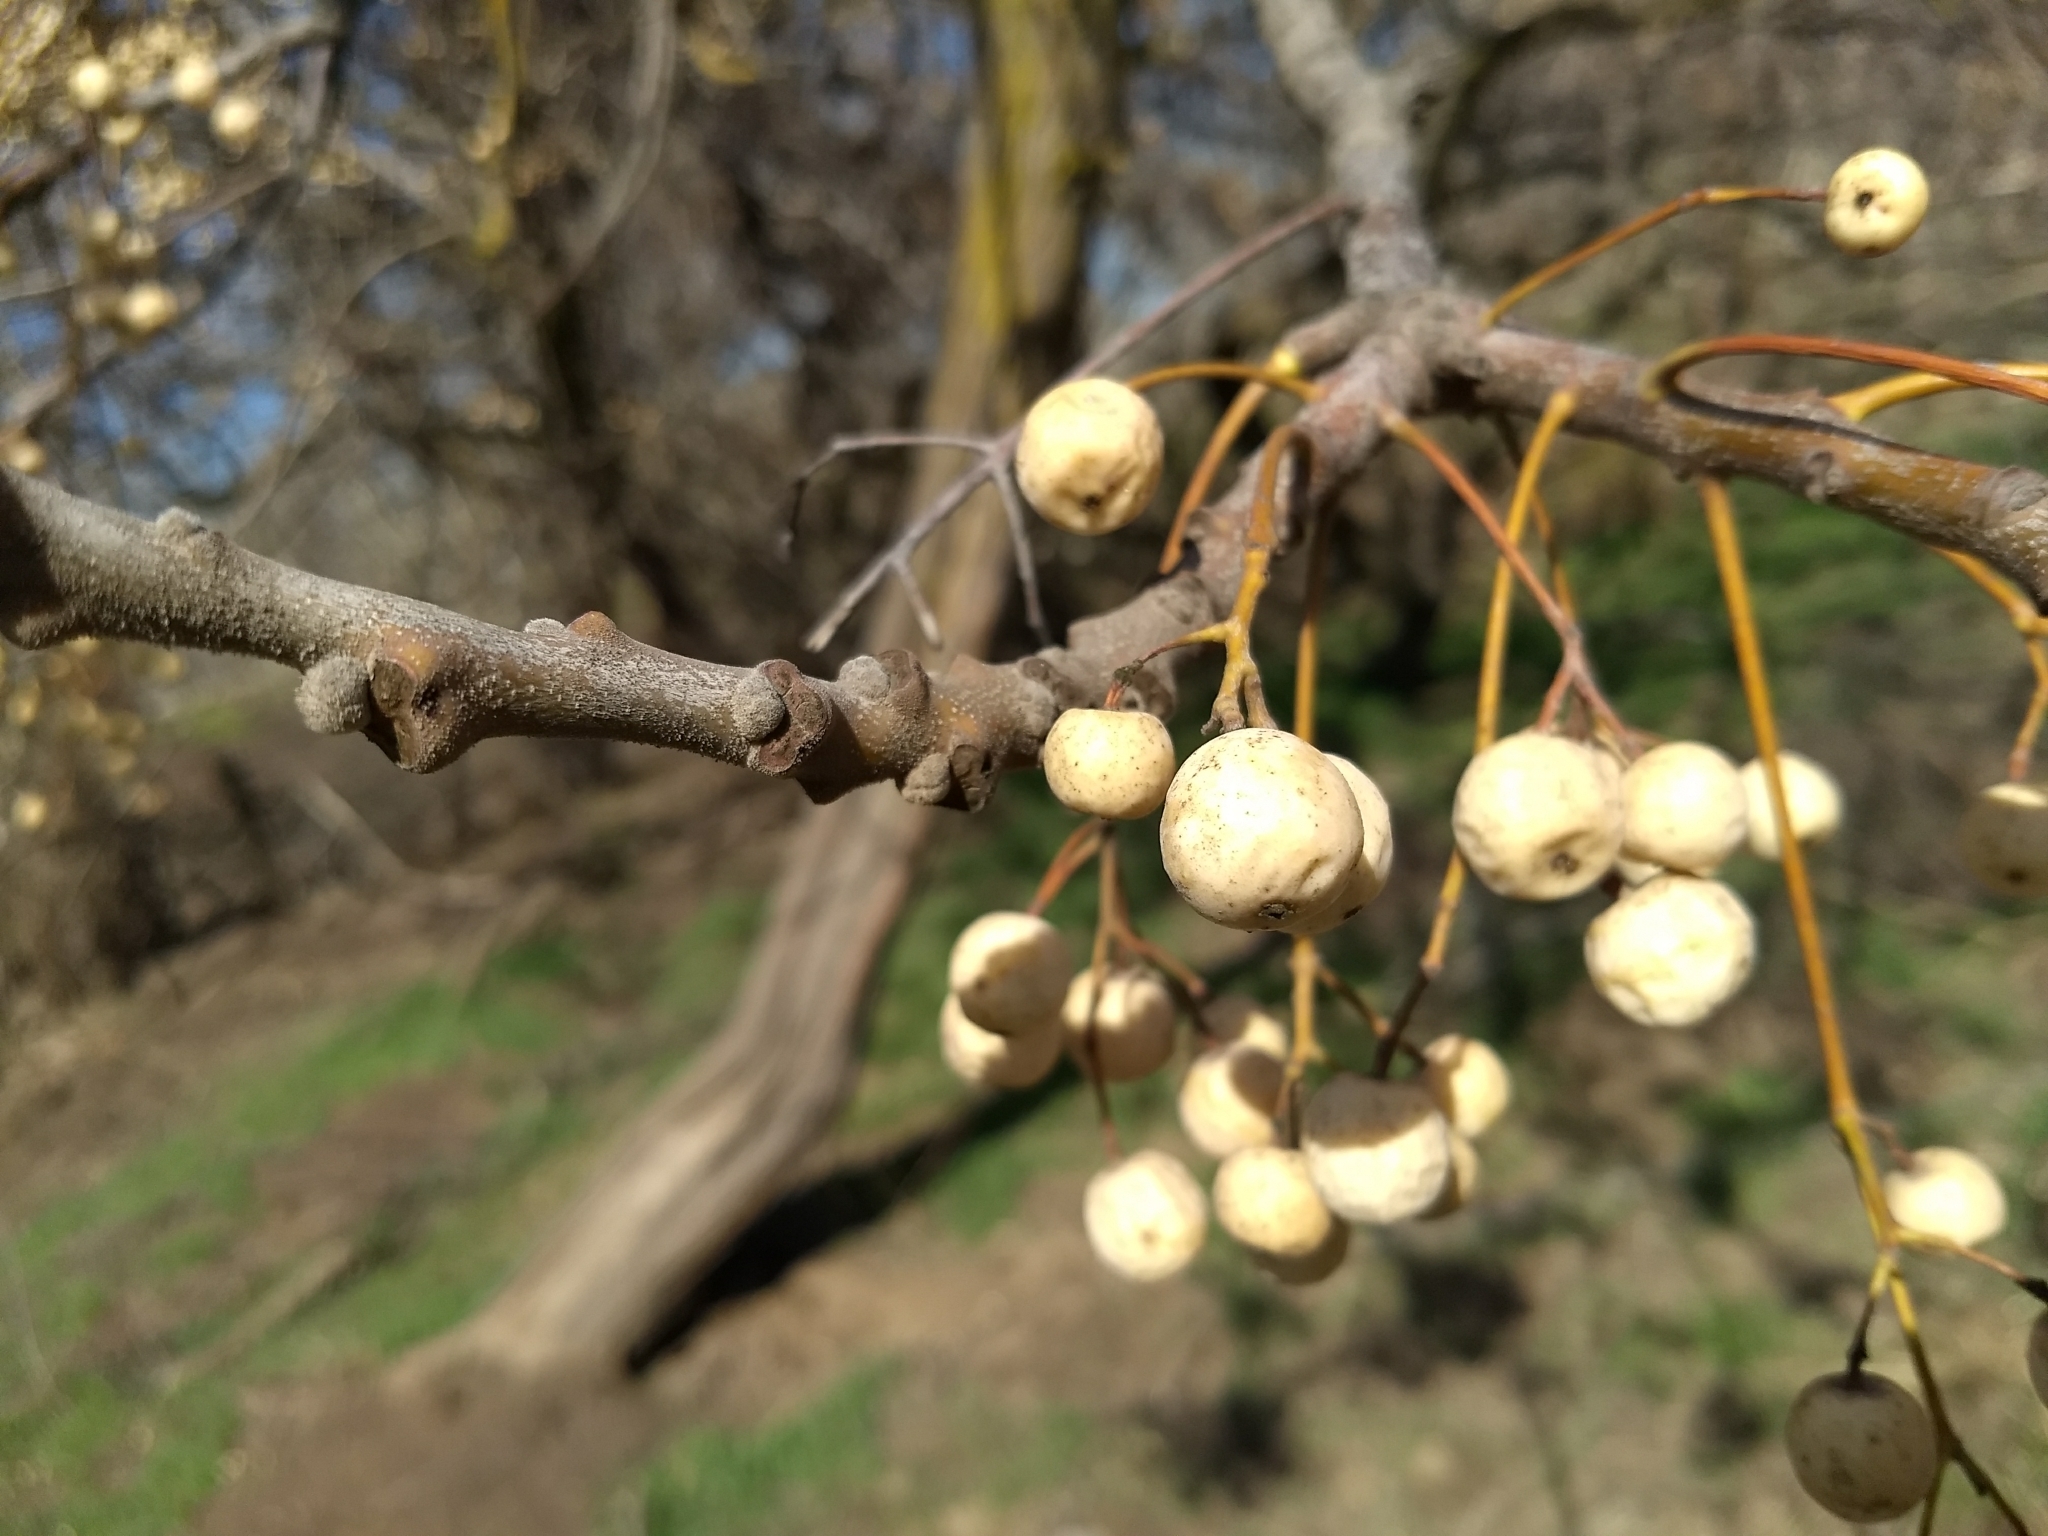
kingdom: Plantae
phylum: Tracheophyta
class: Magnoliopsida
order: Sapindales
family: Meliaceae
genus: Melia
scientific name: Melia azedarach
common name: Chinaberrytree
